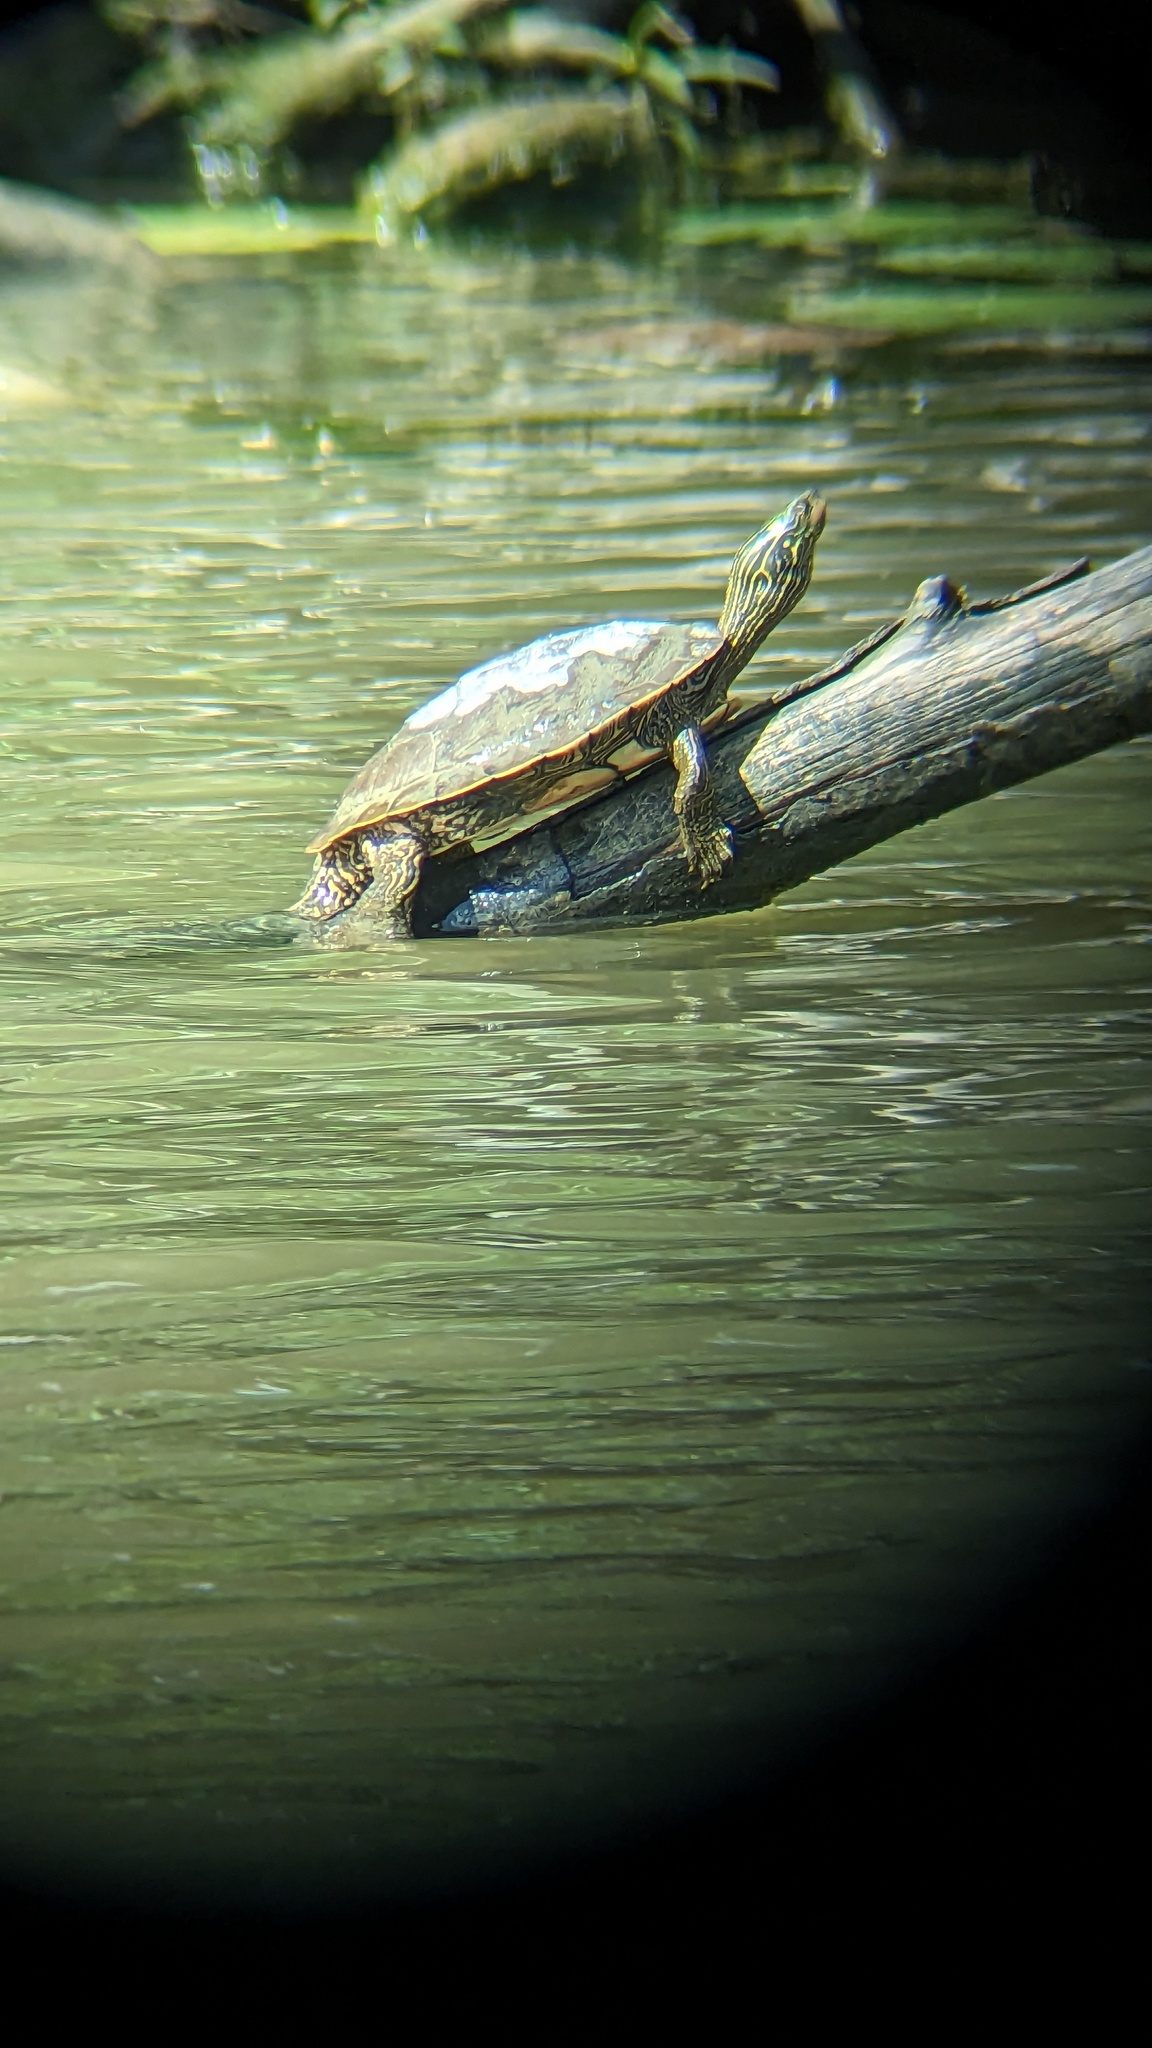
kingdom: Animalia
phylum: Chordata
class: Testudines
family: Emydidae
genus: Graptemys
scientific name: Graptemys geographica
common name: Common map turtle
